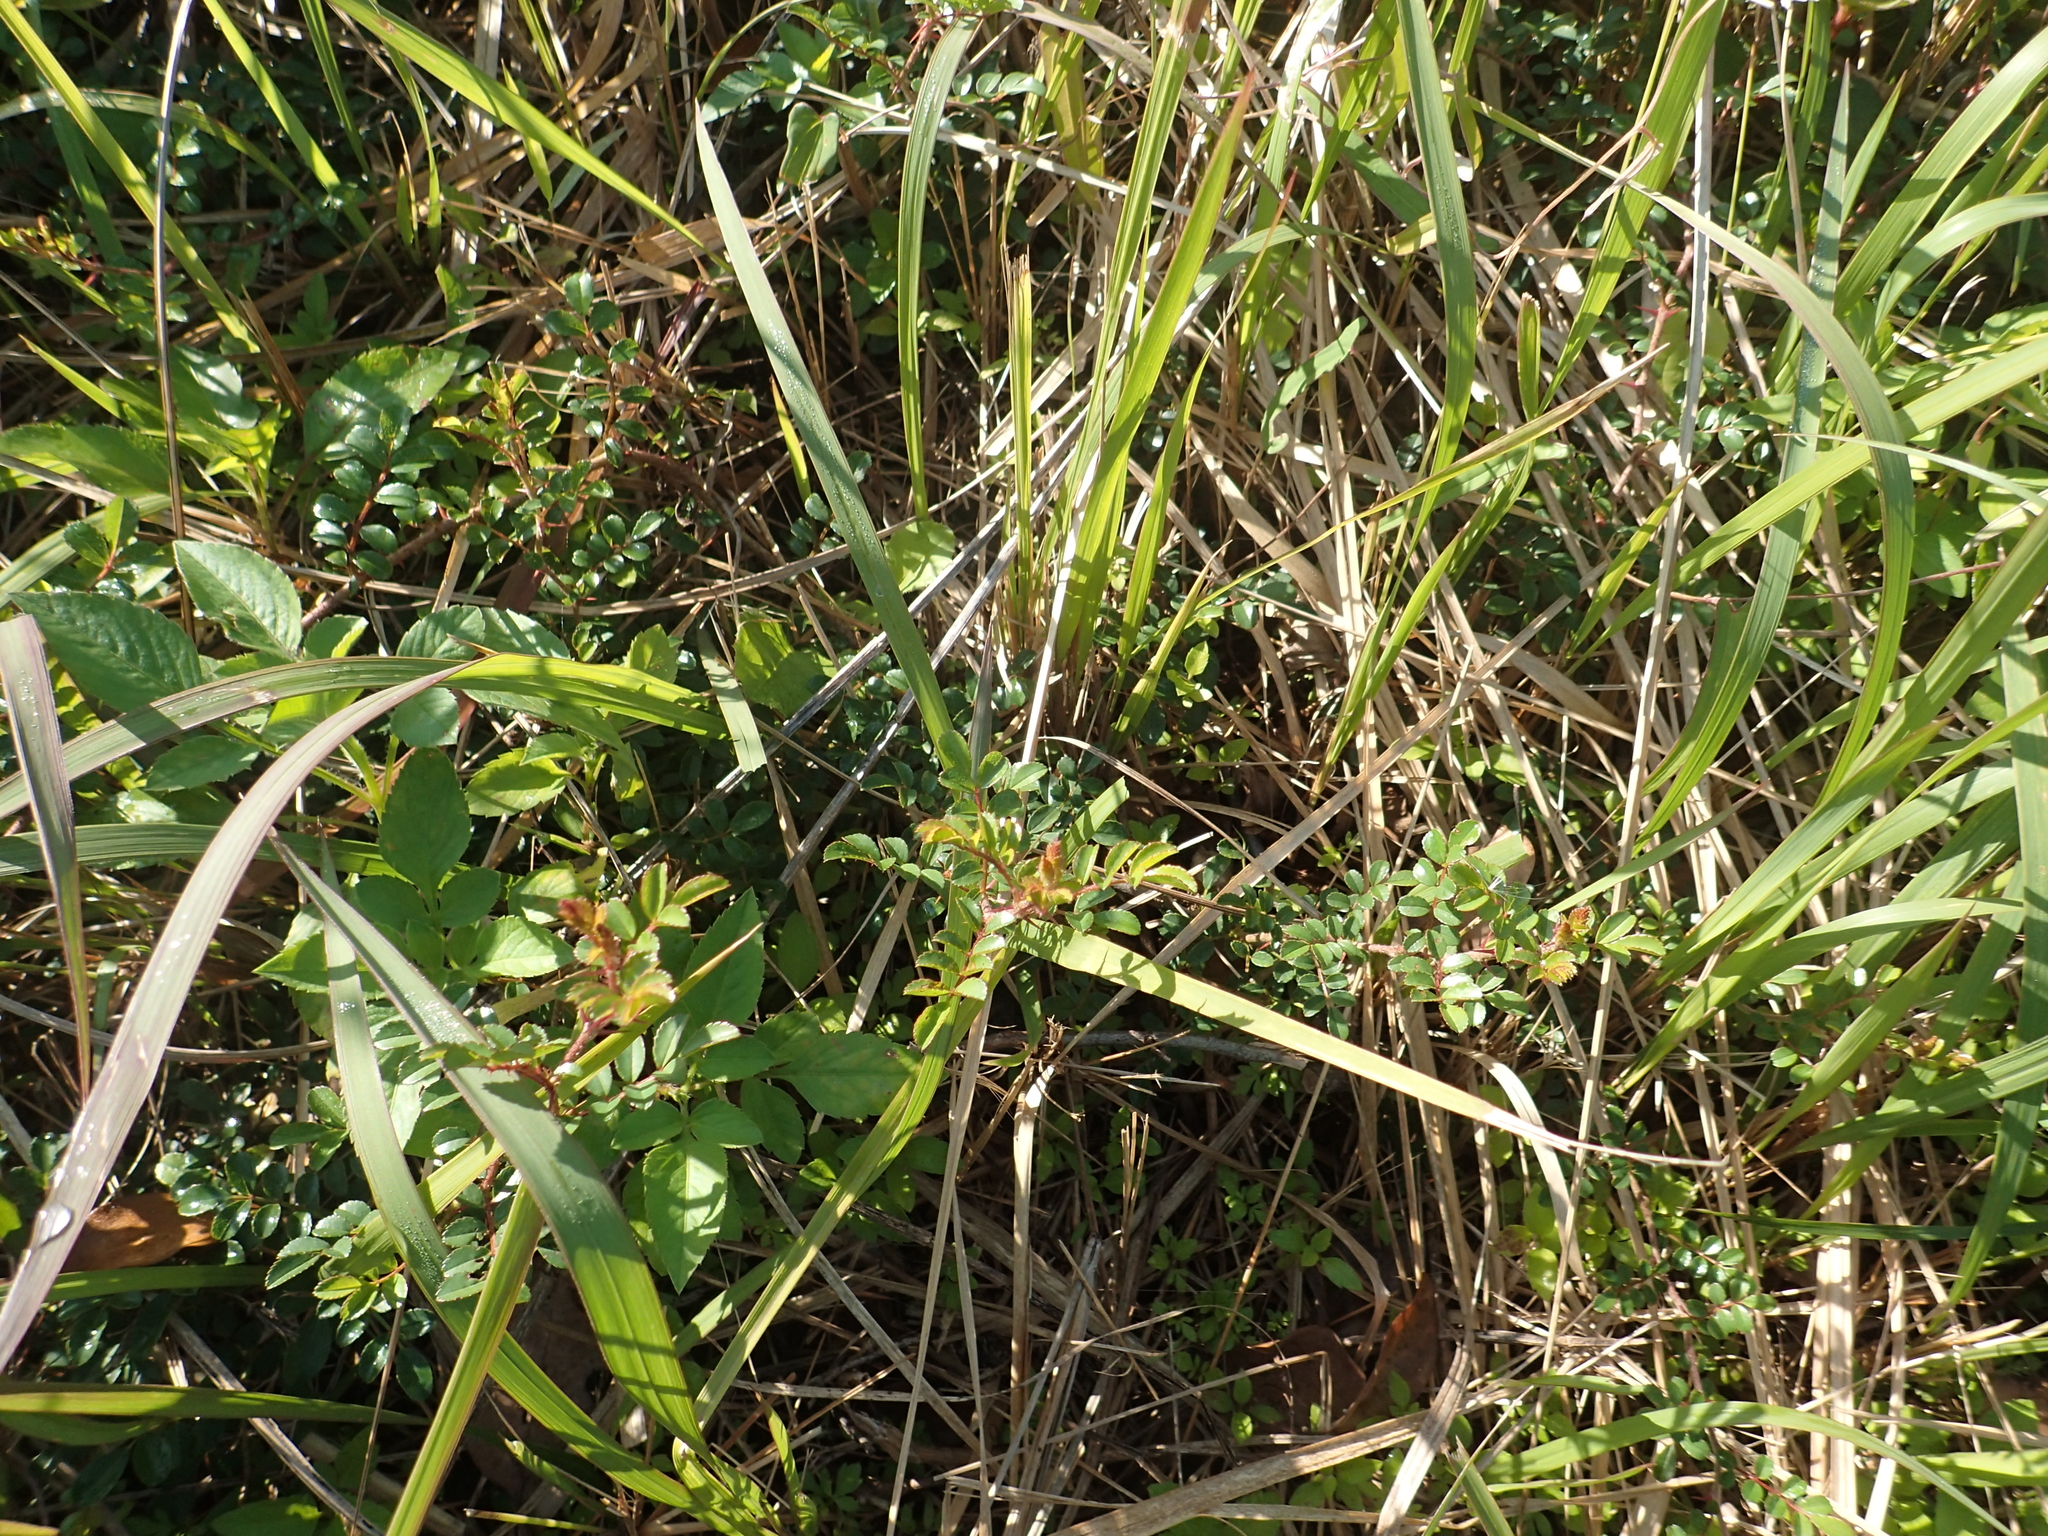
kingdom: Plantae
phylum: Tracheophyta
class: Magnoliopsida
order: Rosales
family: Rosaceae
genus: Rosa
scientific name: Rosa bracteata
